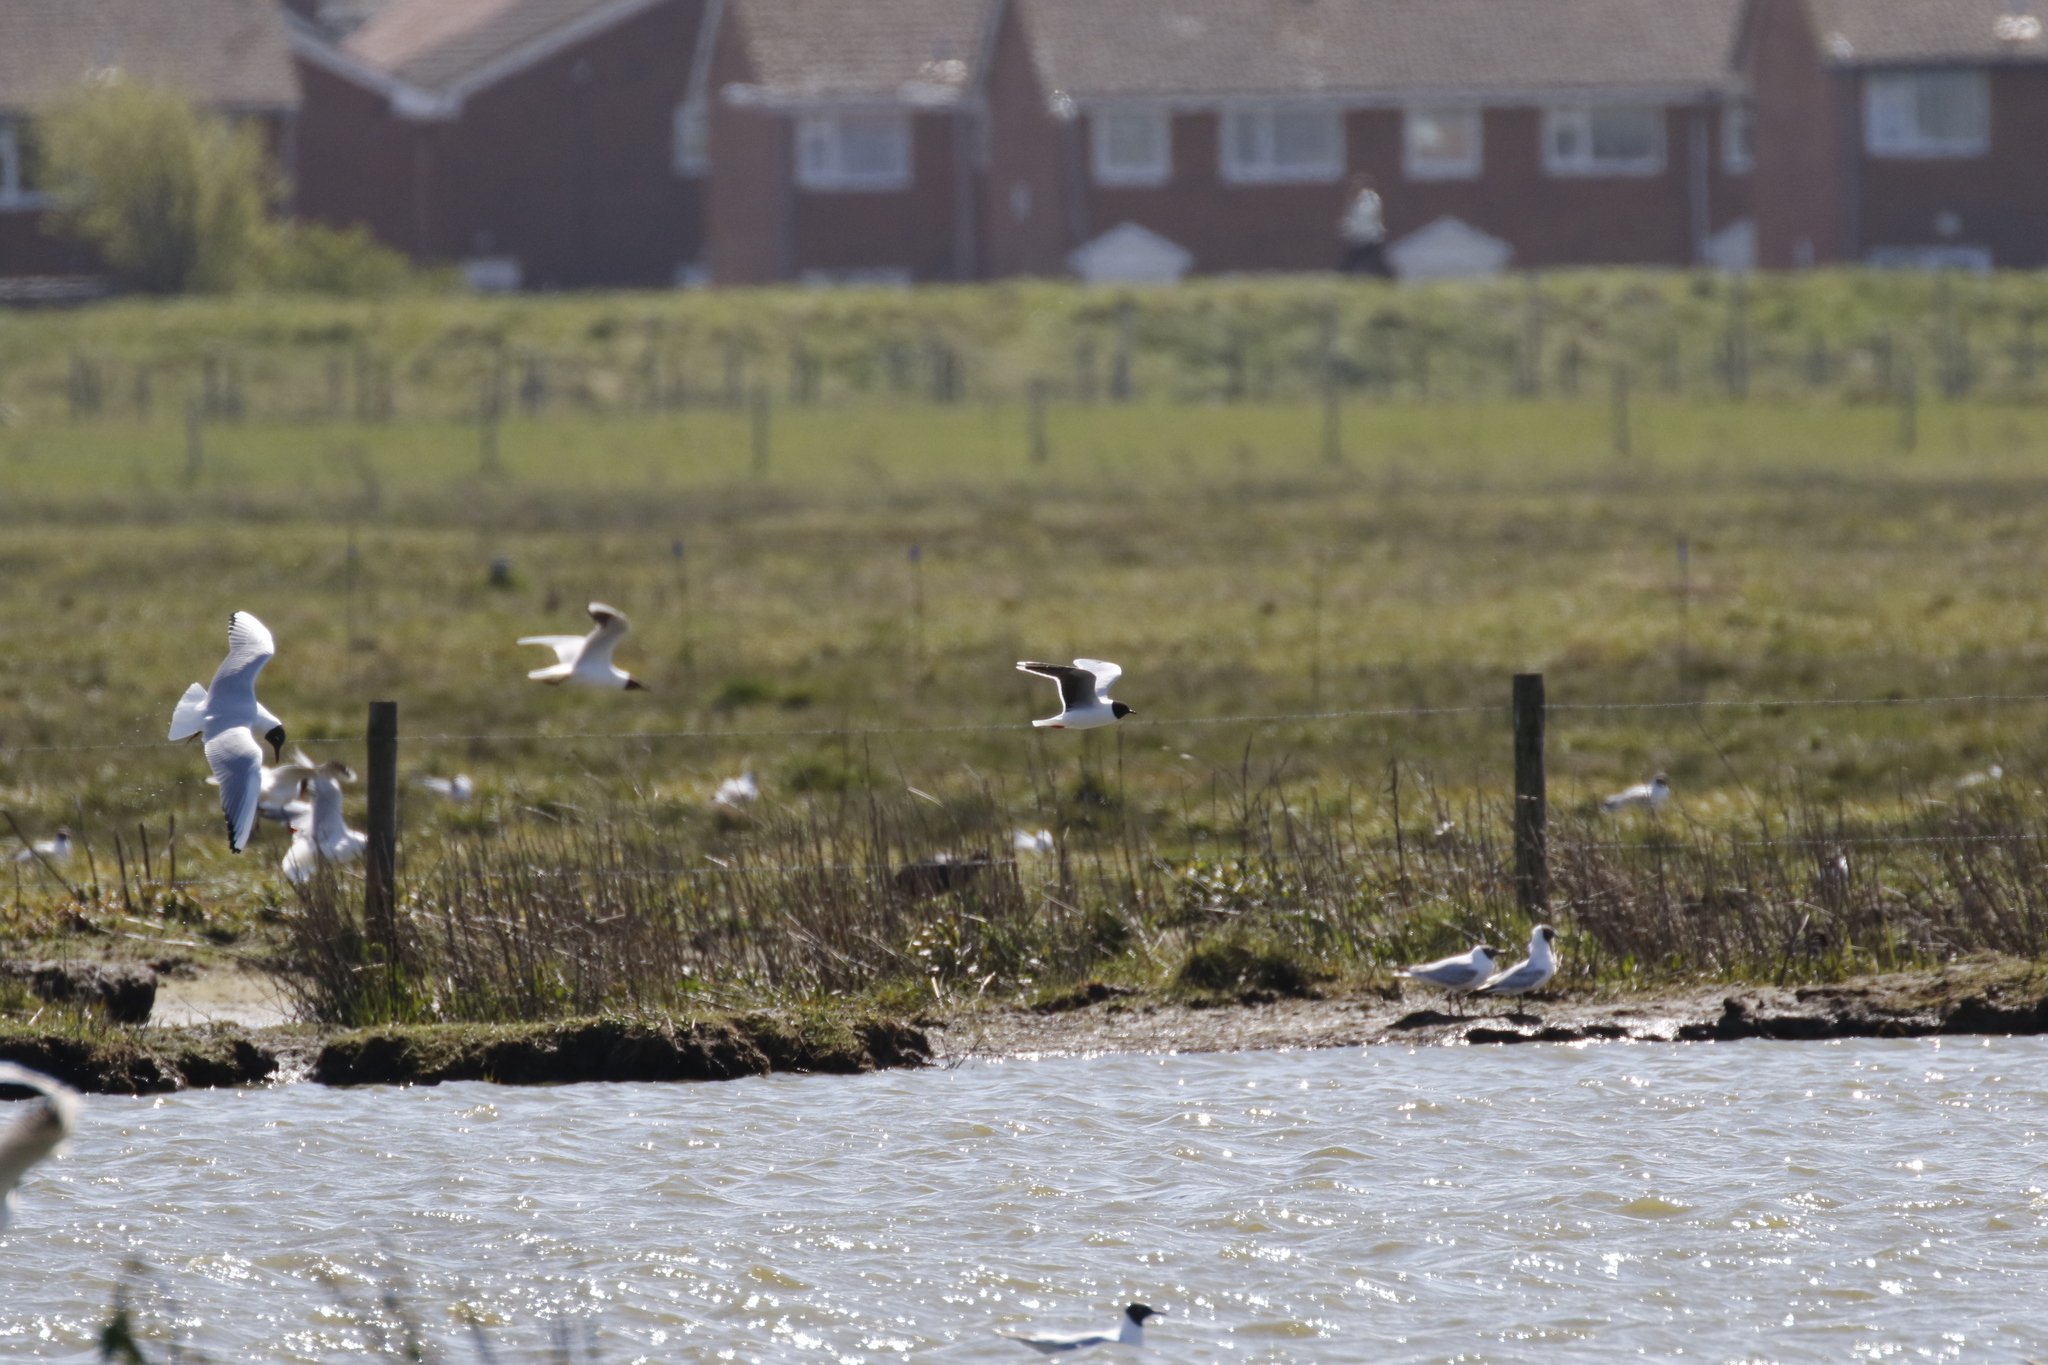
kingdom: Animalia
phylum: Chordata
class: Aves
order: Charadriiformes
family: Laridae
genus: Hydrocoloeus
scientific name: Hydrocoloeus minutus
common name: Little gull
